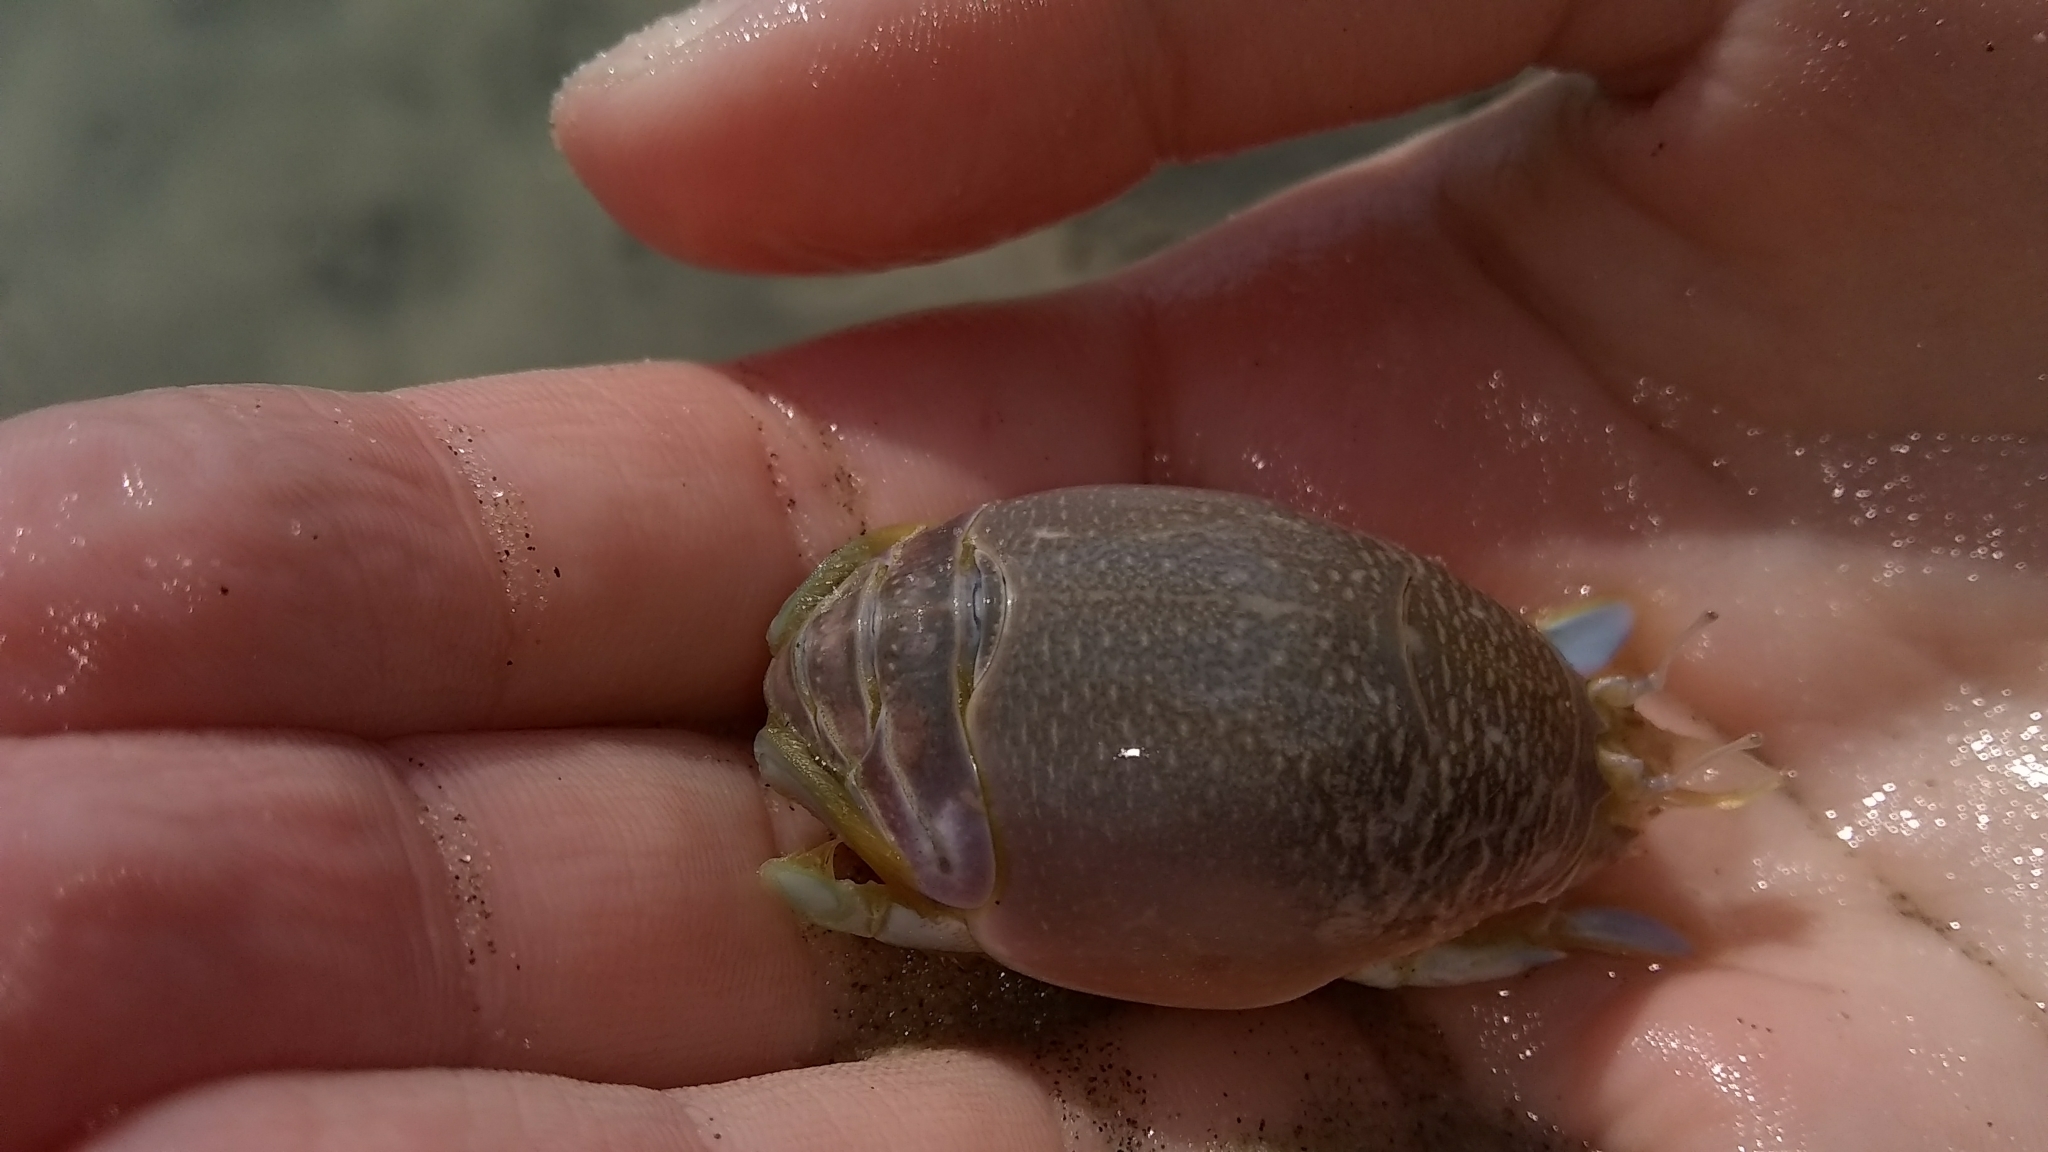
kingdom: Animalia
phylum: Arthropoda
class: Malacostraca
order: Decapoda
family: Hippidae
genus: Emerita
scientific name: Emerita talpoida
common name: Atlantic sand crab
